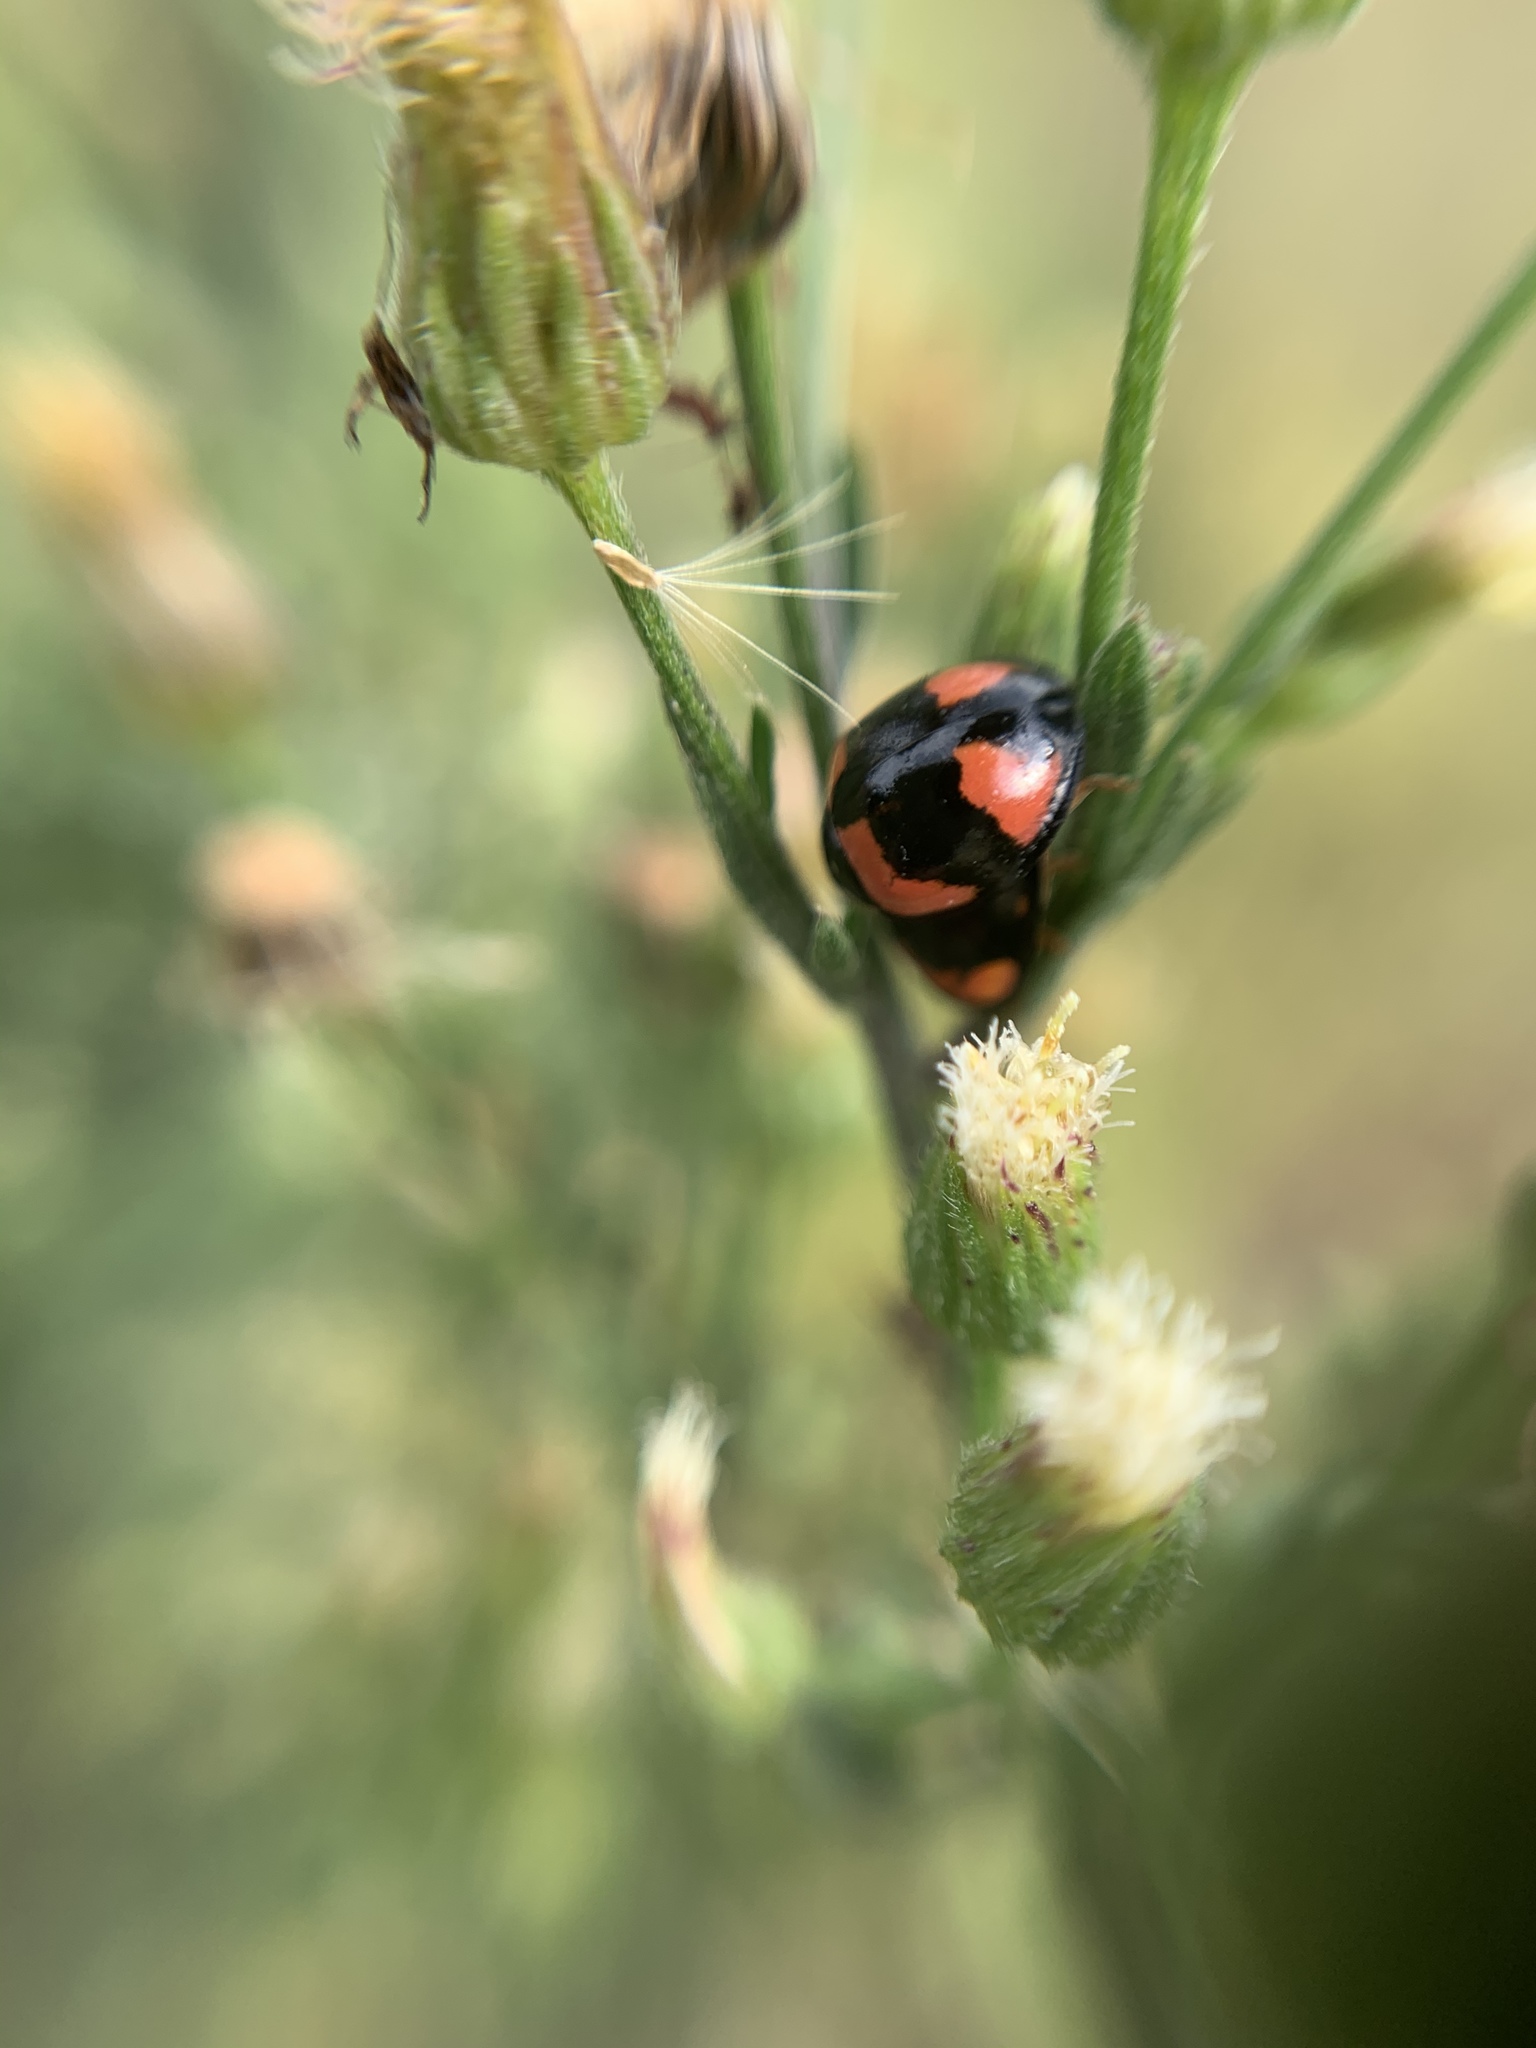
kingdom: Animalia
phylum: Arthropoda
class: Insecta
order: Coleoptera
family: Coccinellidae
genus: Cheilomenes
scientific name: Cheilomenes sexmaculata
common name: Ladybird beetle
